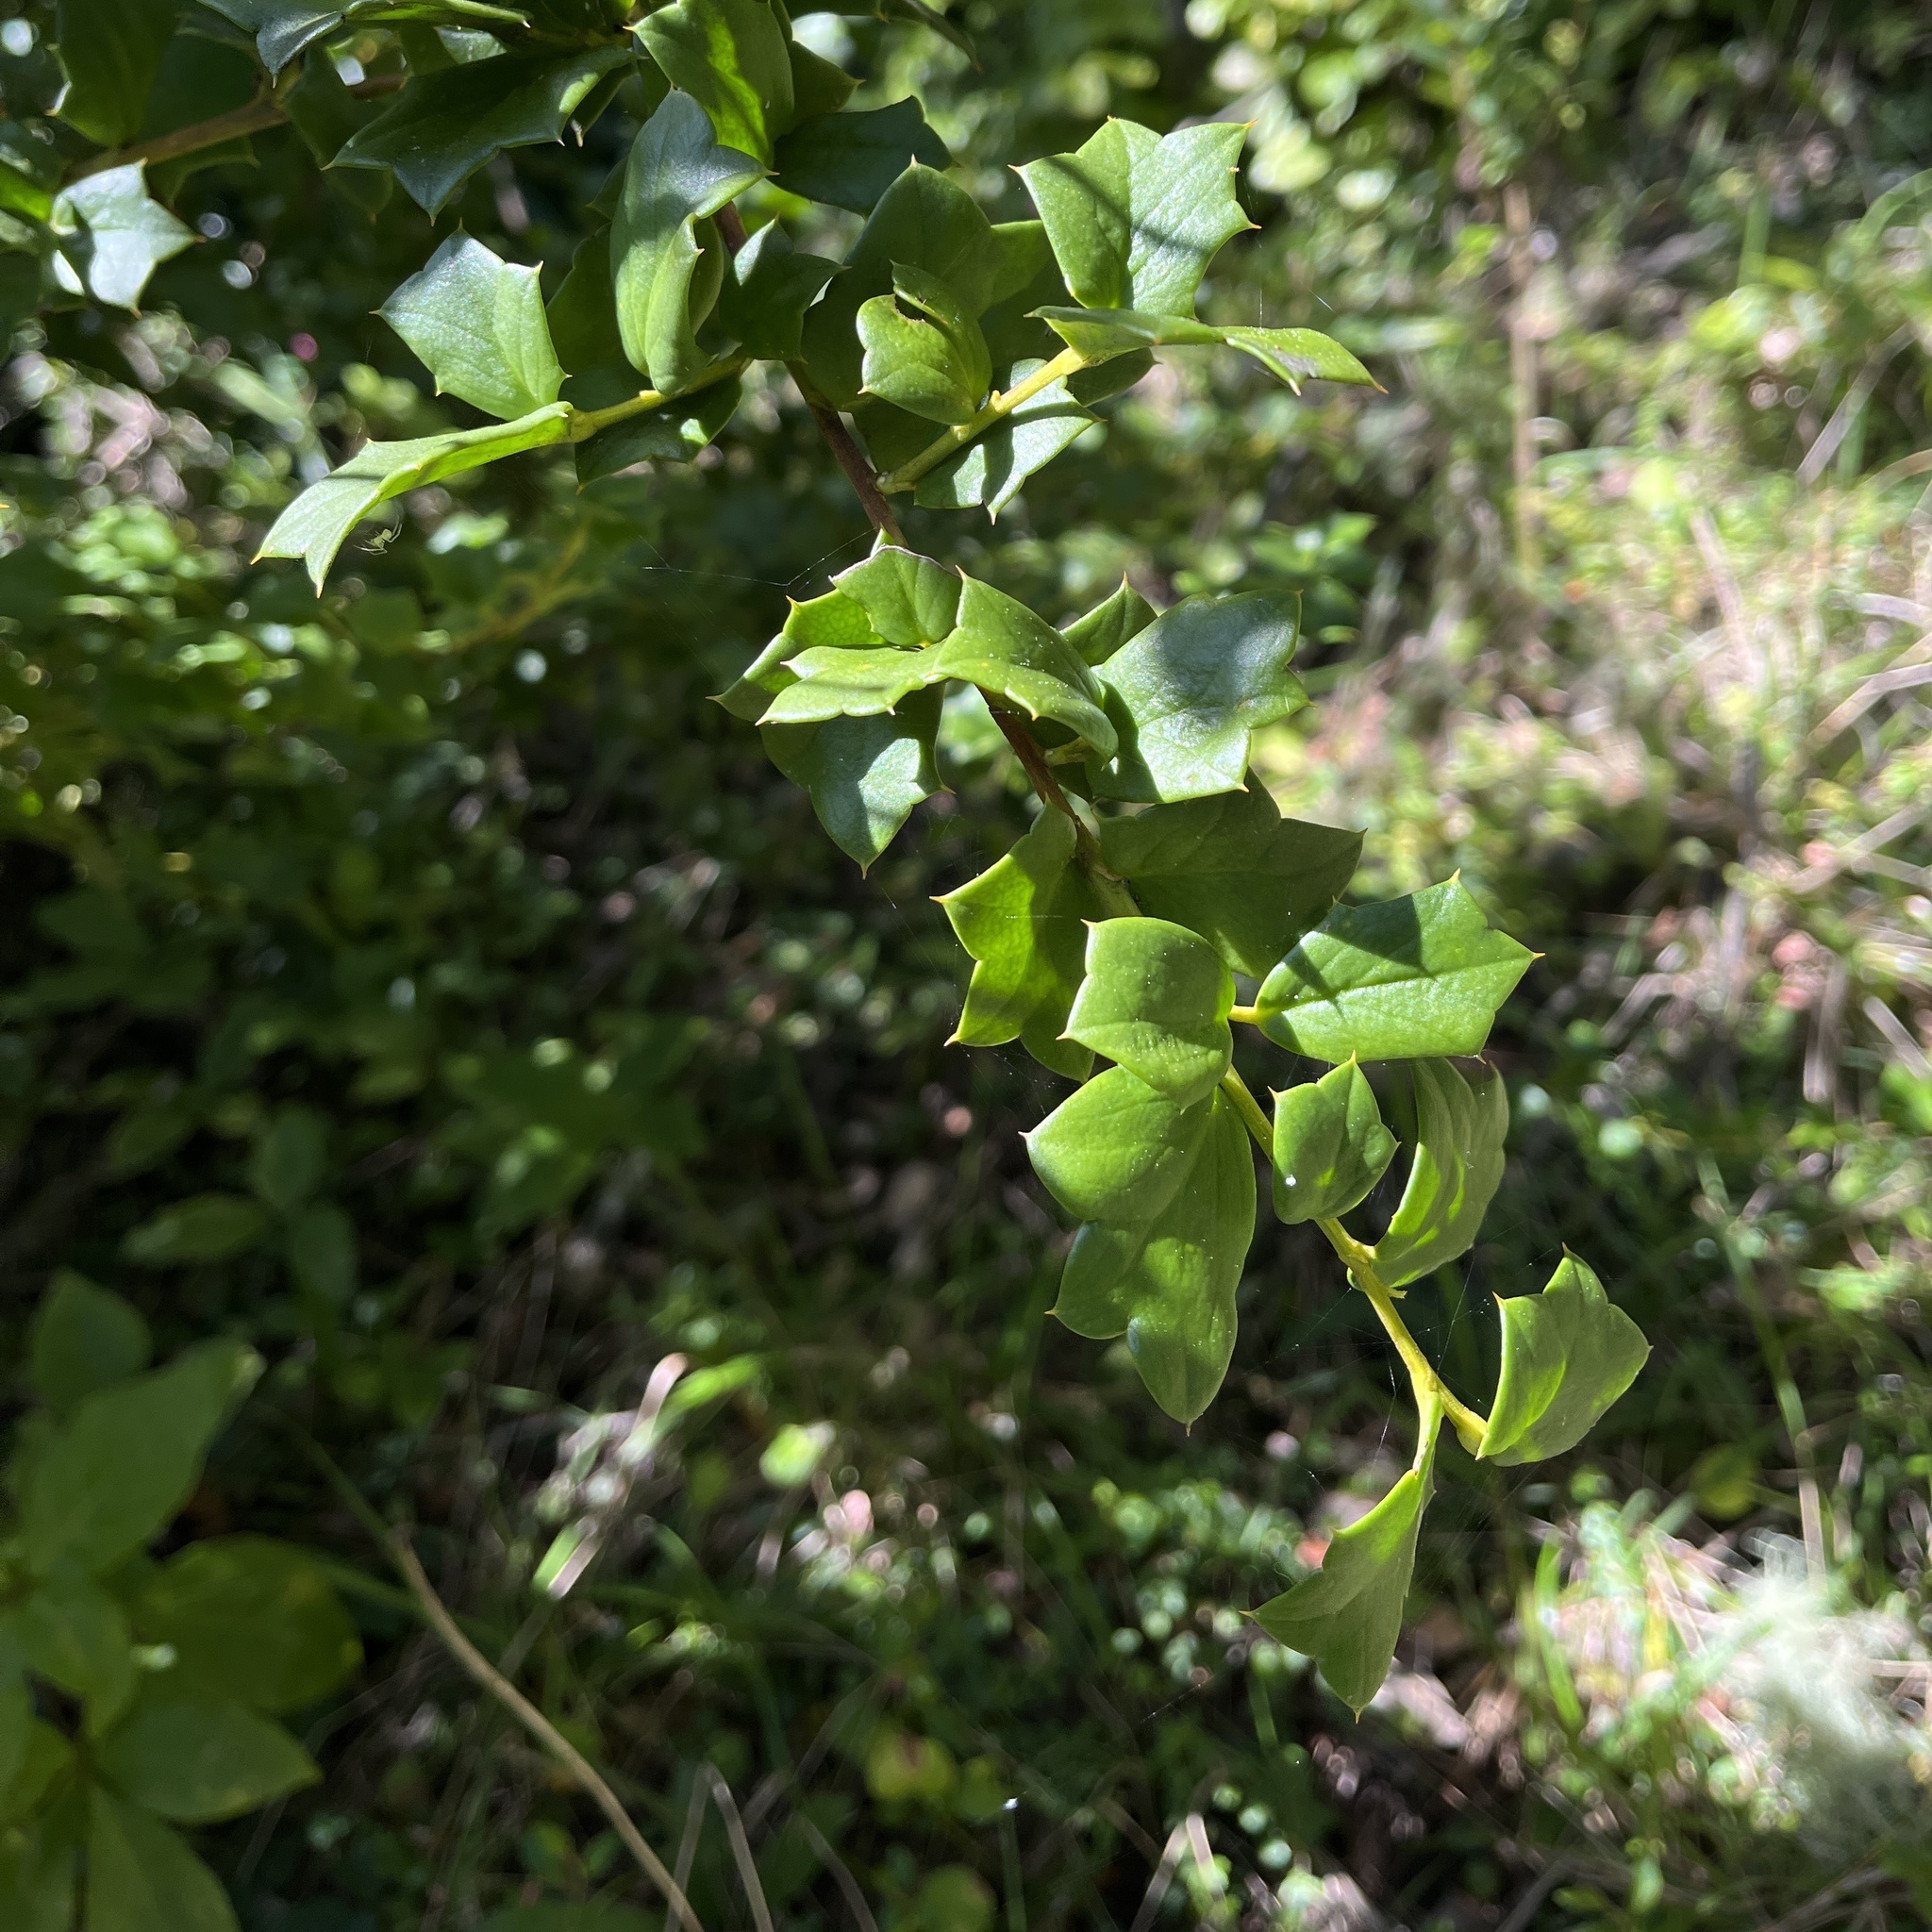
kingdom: Plantae
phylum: Tracheophyta
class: Magnoliopsida
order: Apiales
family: Griseliniaceae
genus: Griselinia
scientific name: Griselinia jodinifolia
